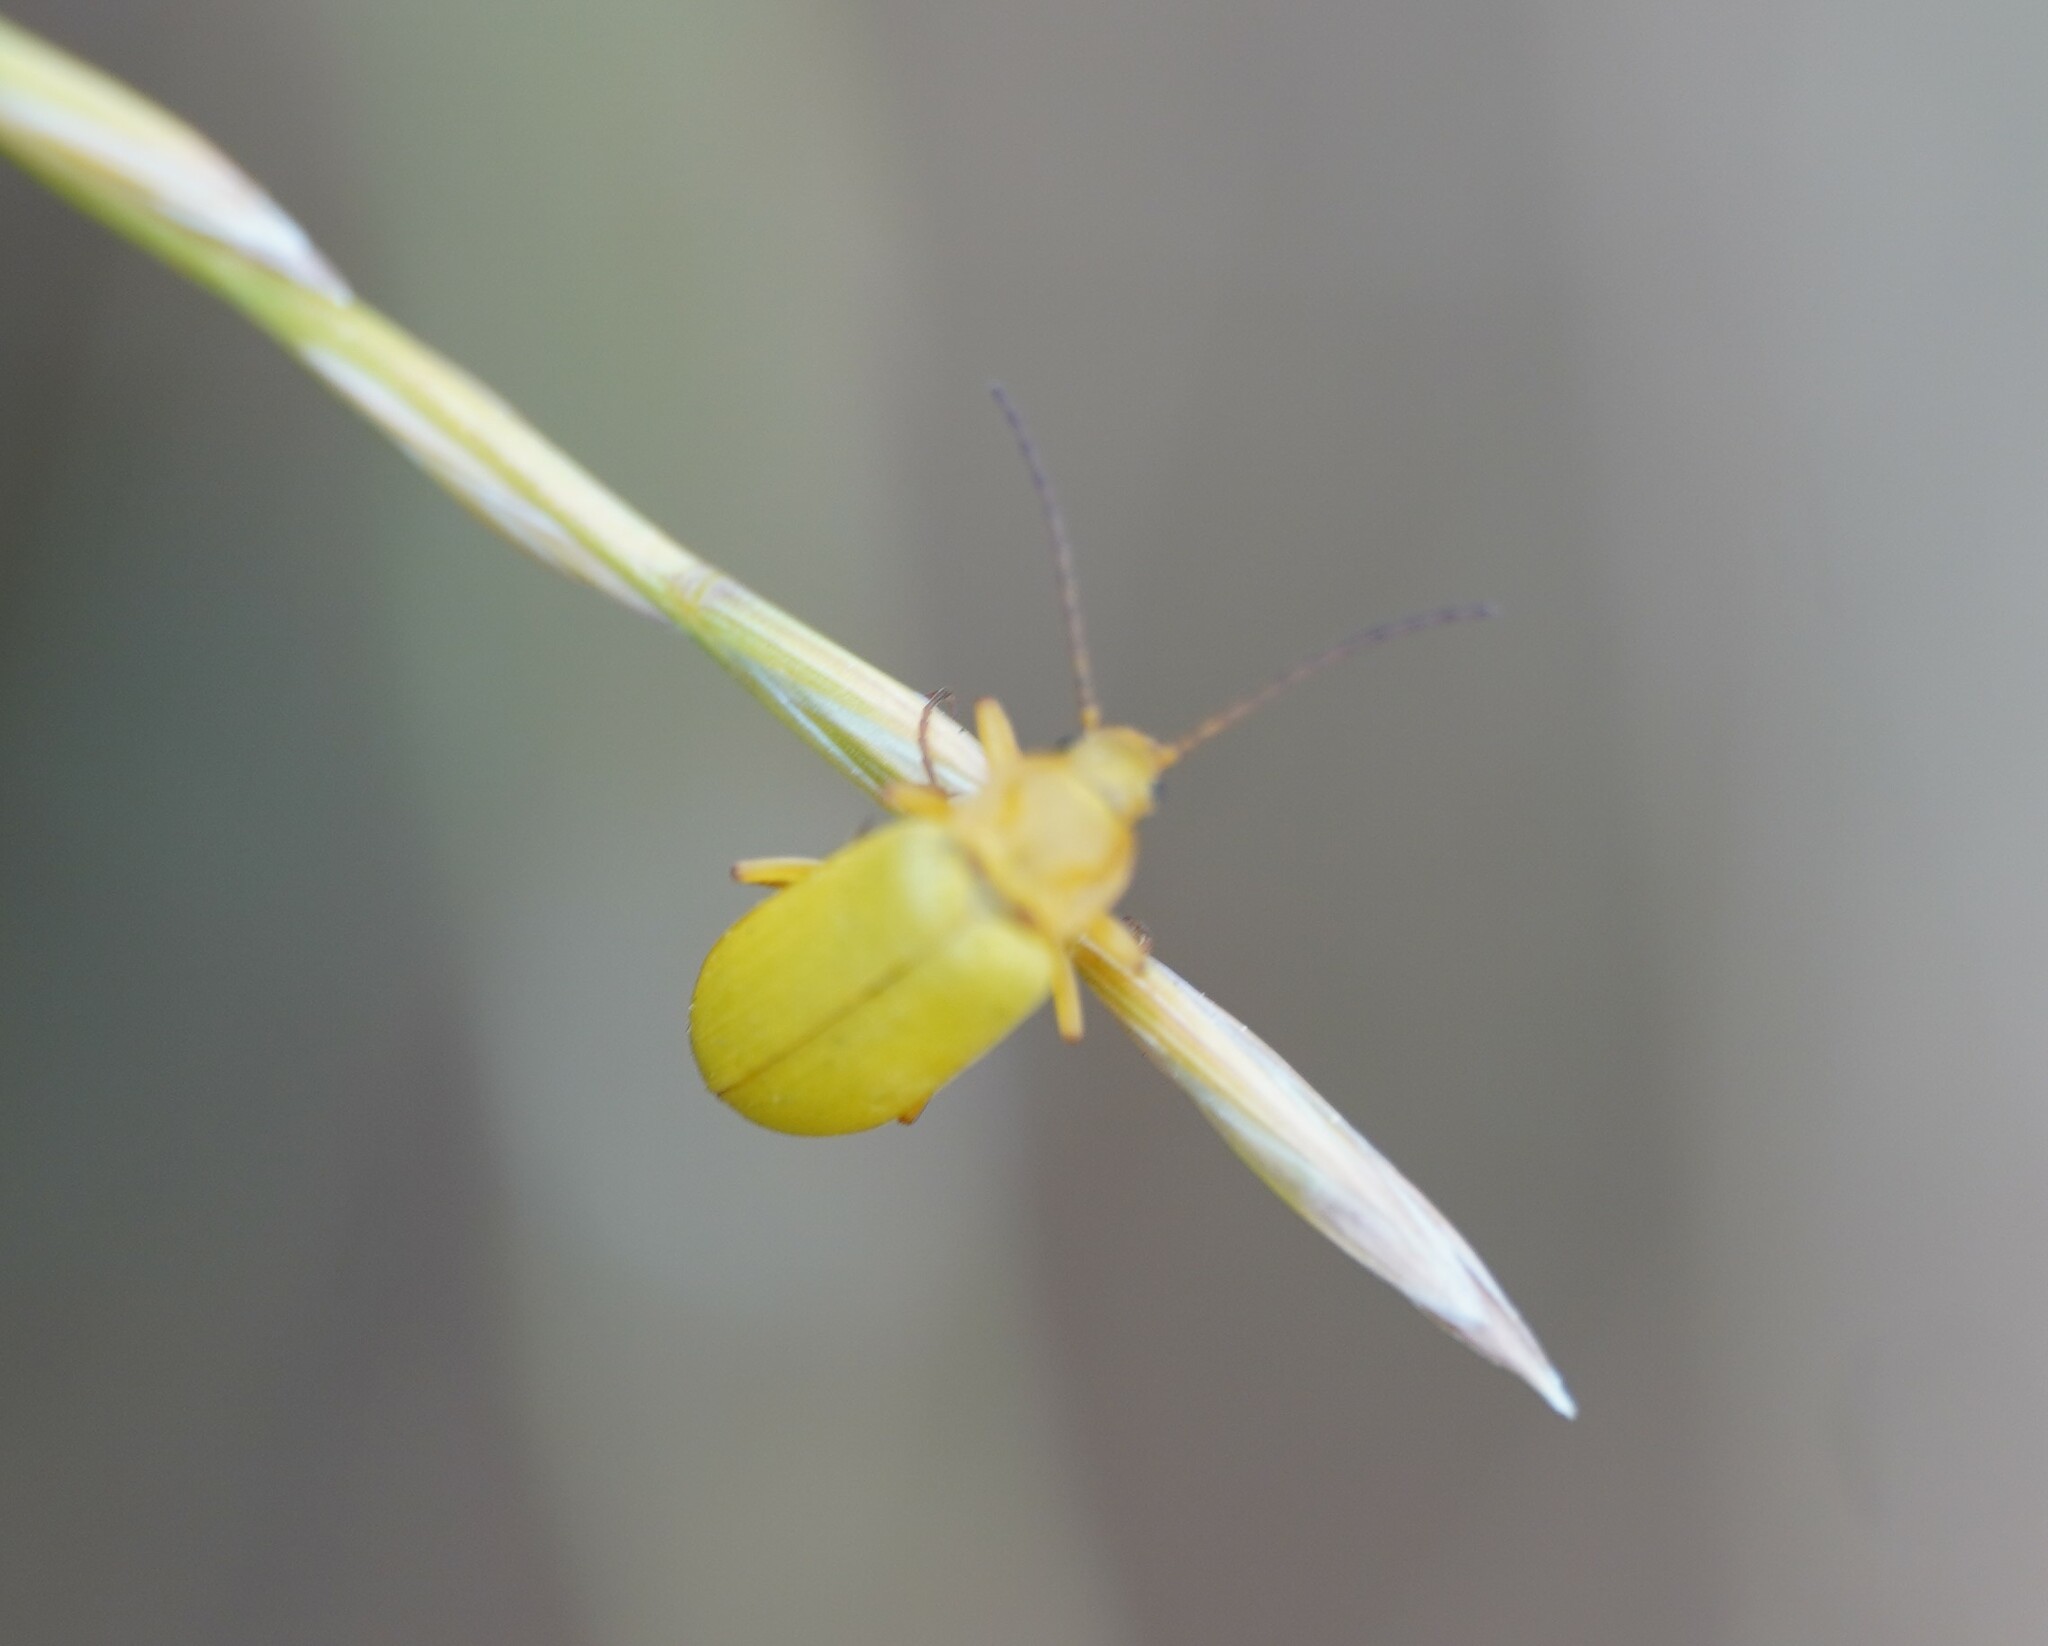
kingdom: Animalia
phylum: Arthropoda
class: Insecta
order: Coleoptera
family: Tenebrionidae
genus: Cteniopus
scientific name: Cteniopus sulphureus
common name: Sulphur beetle
